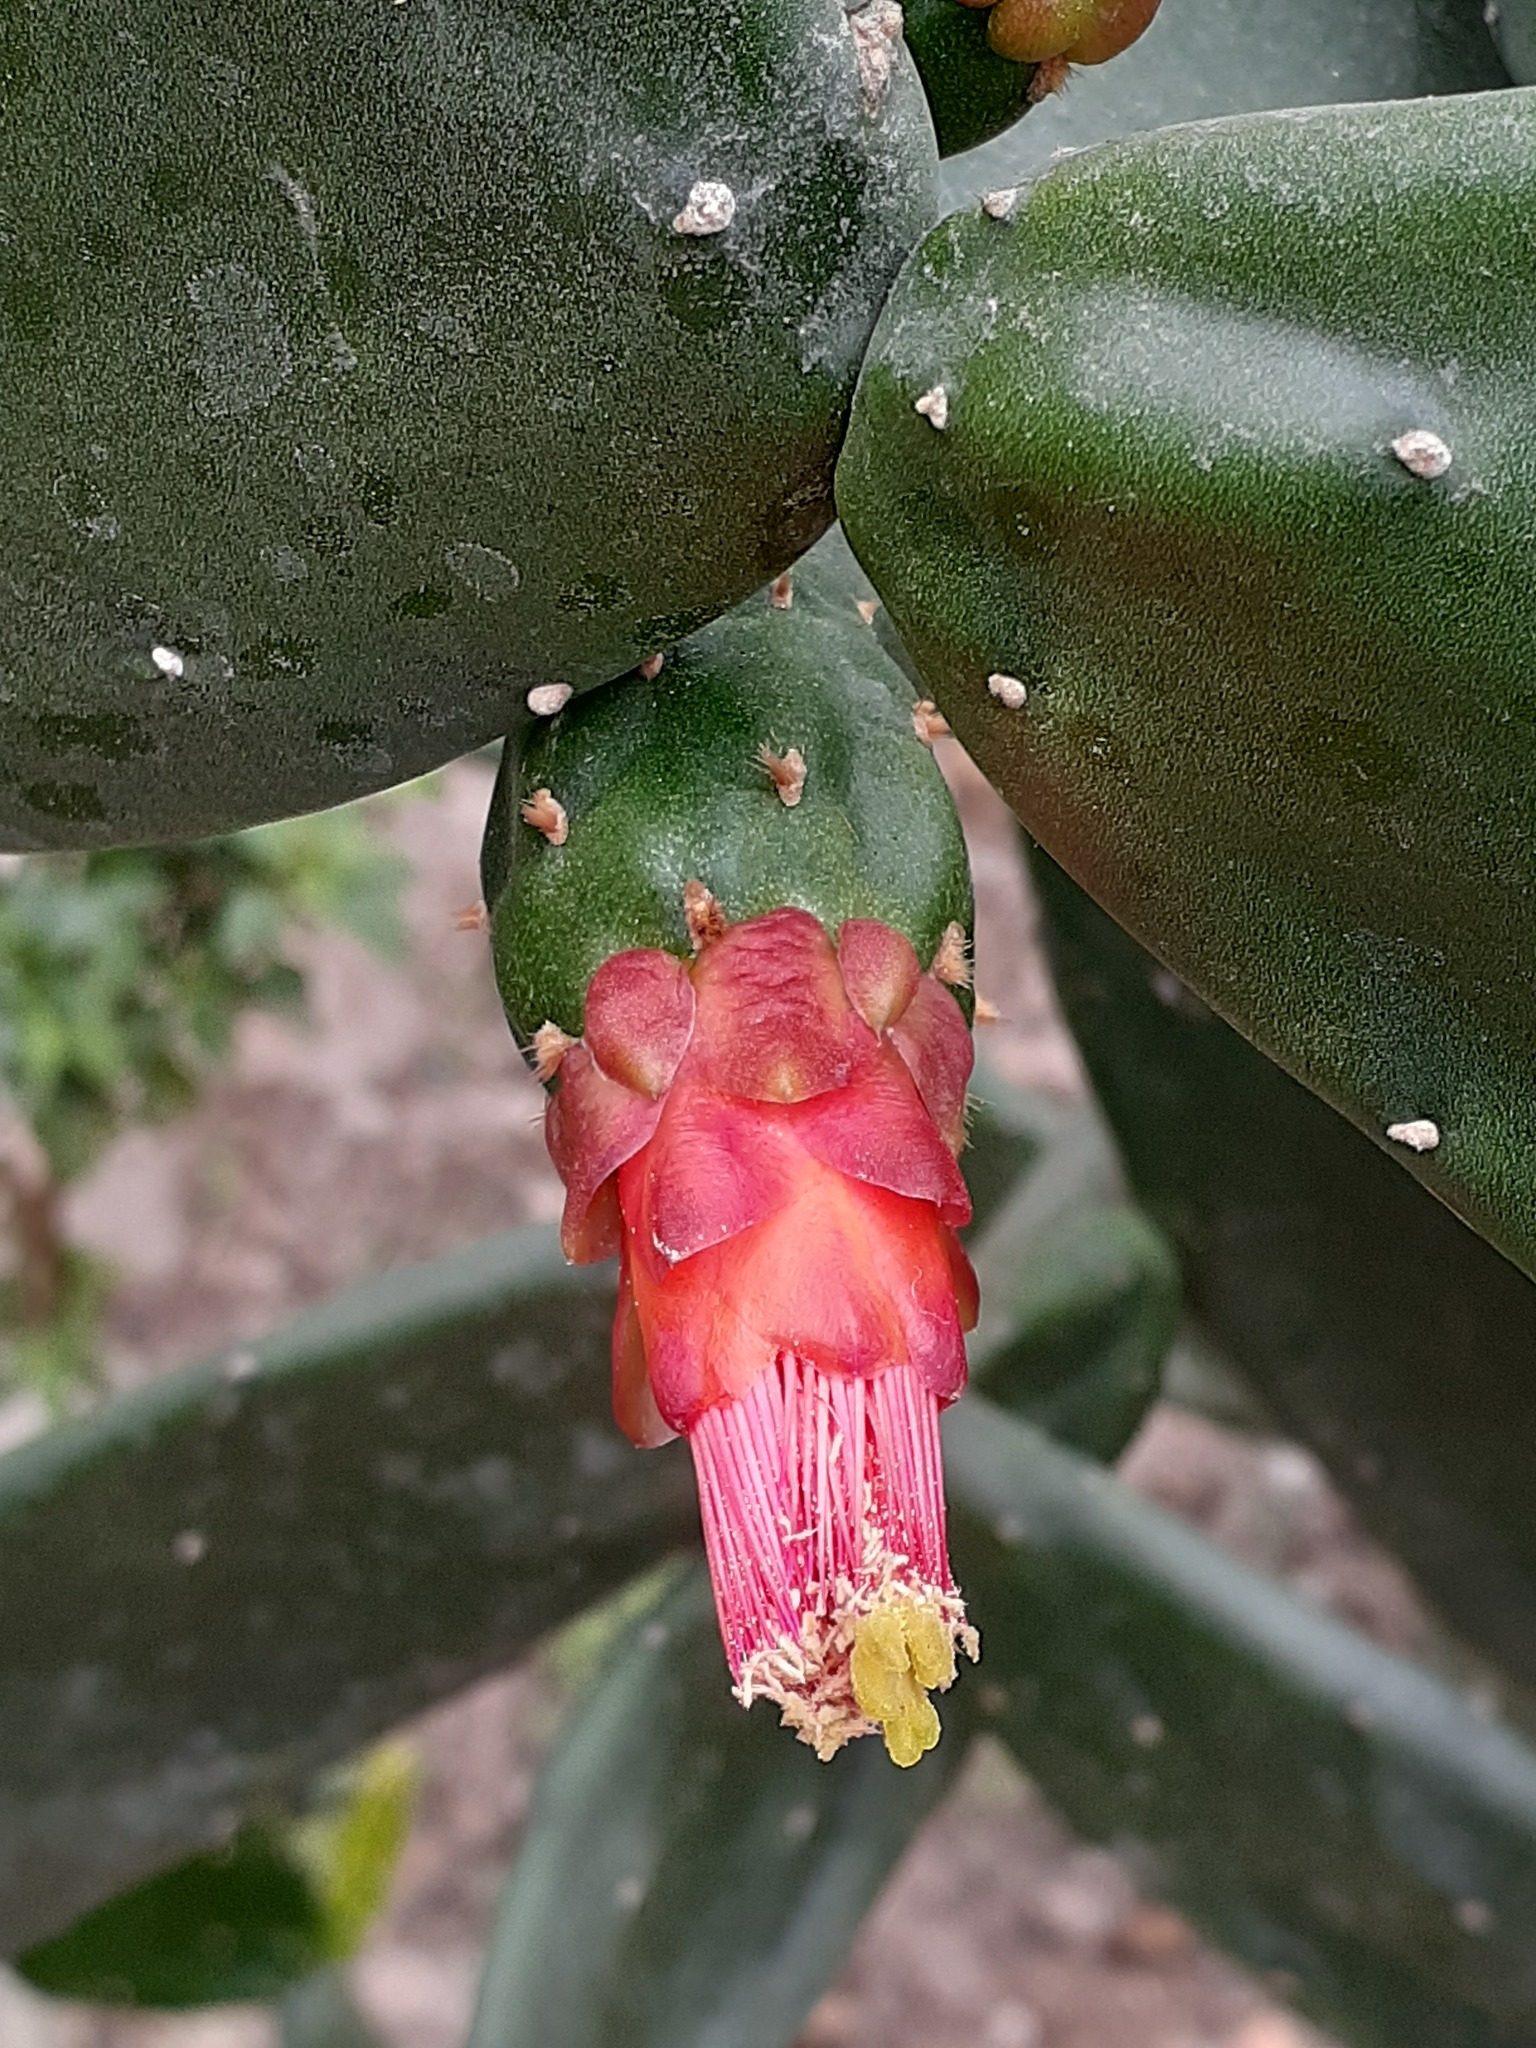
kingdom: Plantae
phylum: Tracheophyta
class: Magnoliopsida
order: Caryophyllales
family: Cactaceae
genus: Opuntia
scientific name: Opuntia cochenillifera
